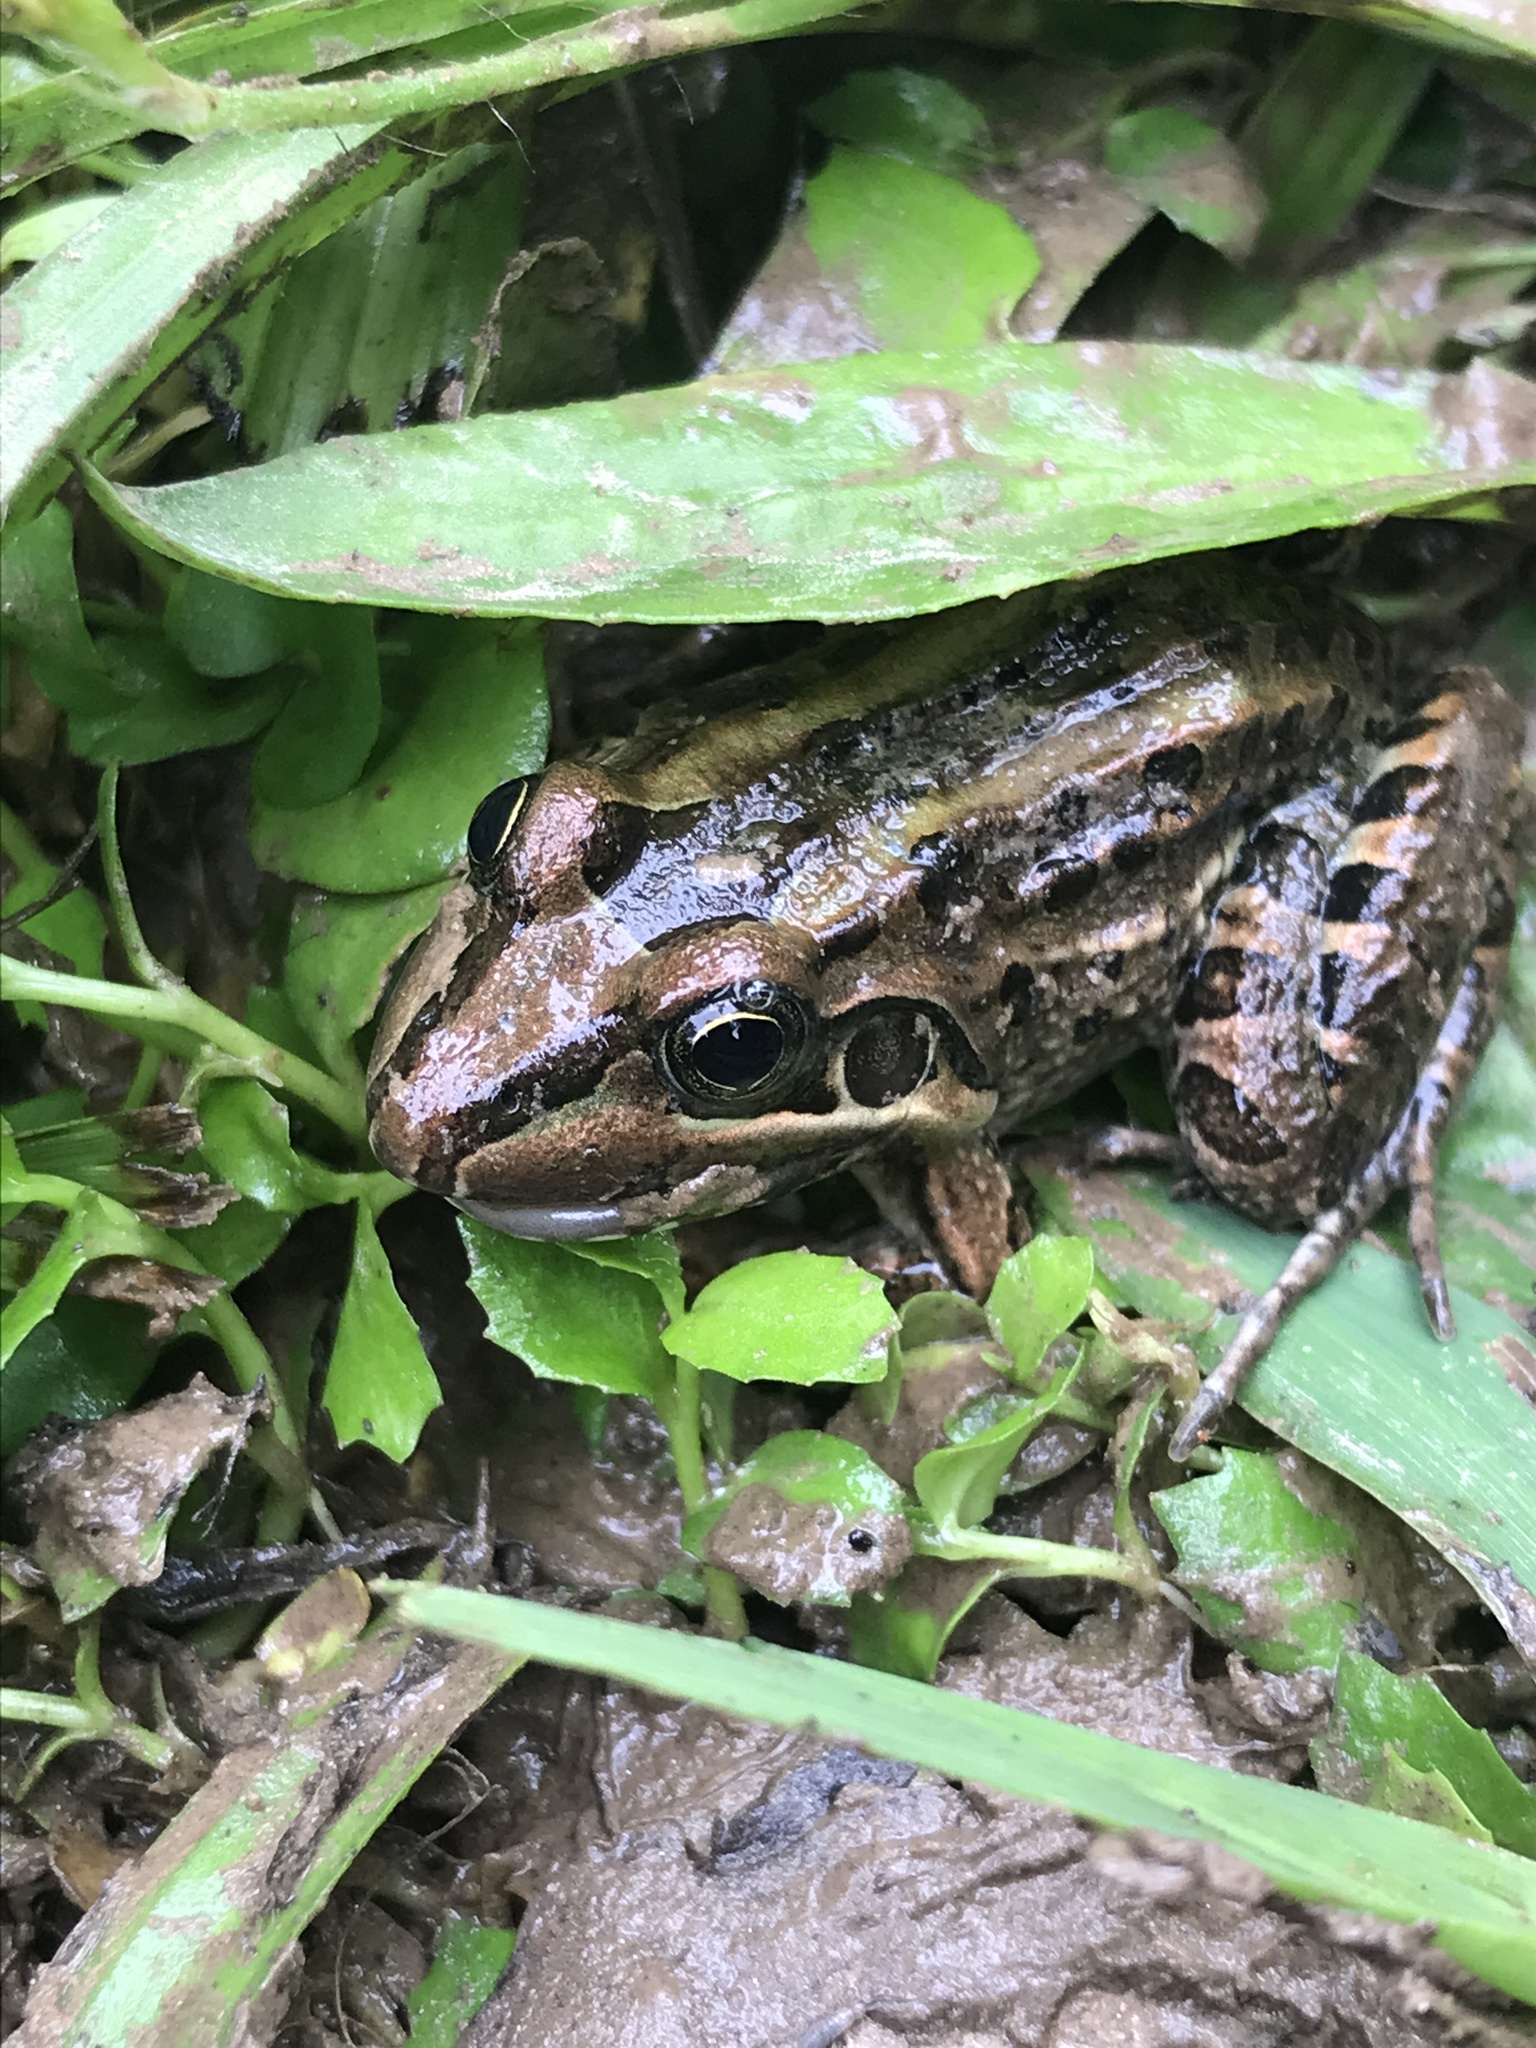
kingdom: Animalia
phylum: Chordata
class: Amphibia
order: Anura
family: Leptodactylidae
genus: Leptodactylus
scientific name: Leptodactylus luctator
